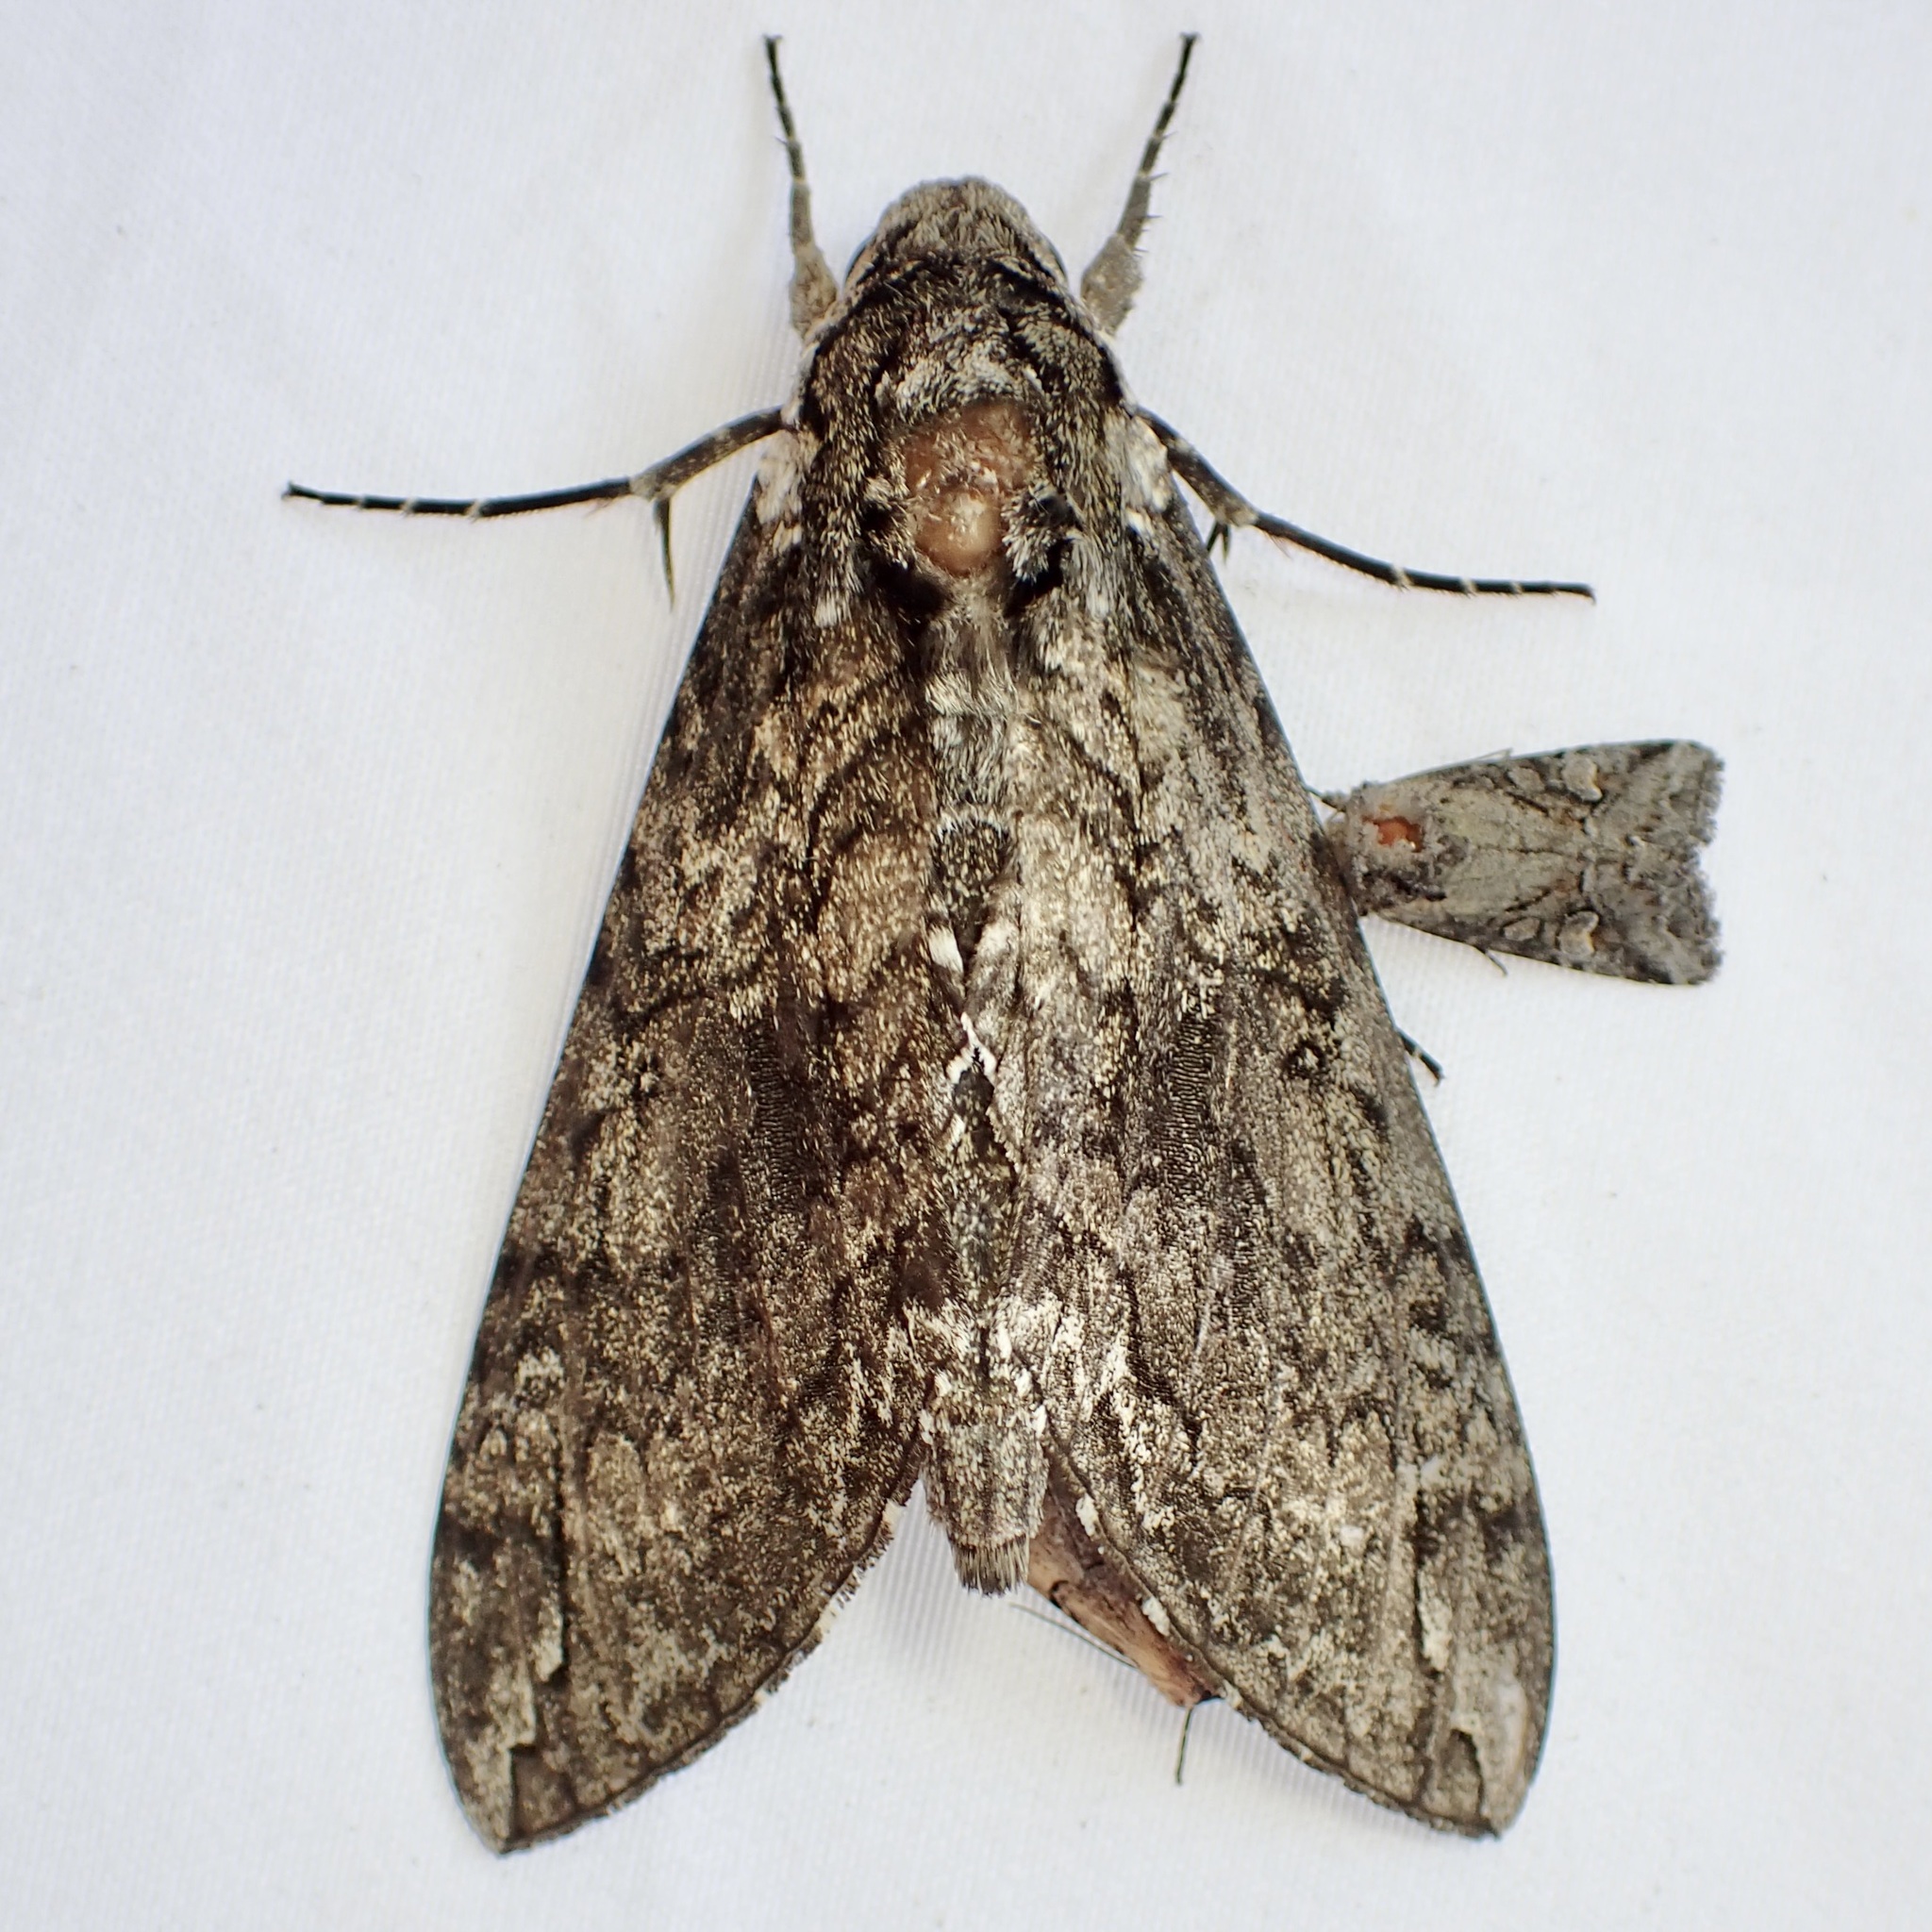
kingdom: Animalia
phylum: Arthropoda
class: Insecta
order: Lepidoptera
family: Sphingidae
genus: Manduca
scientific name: Manduca sexta
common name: Carolina sphinx
